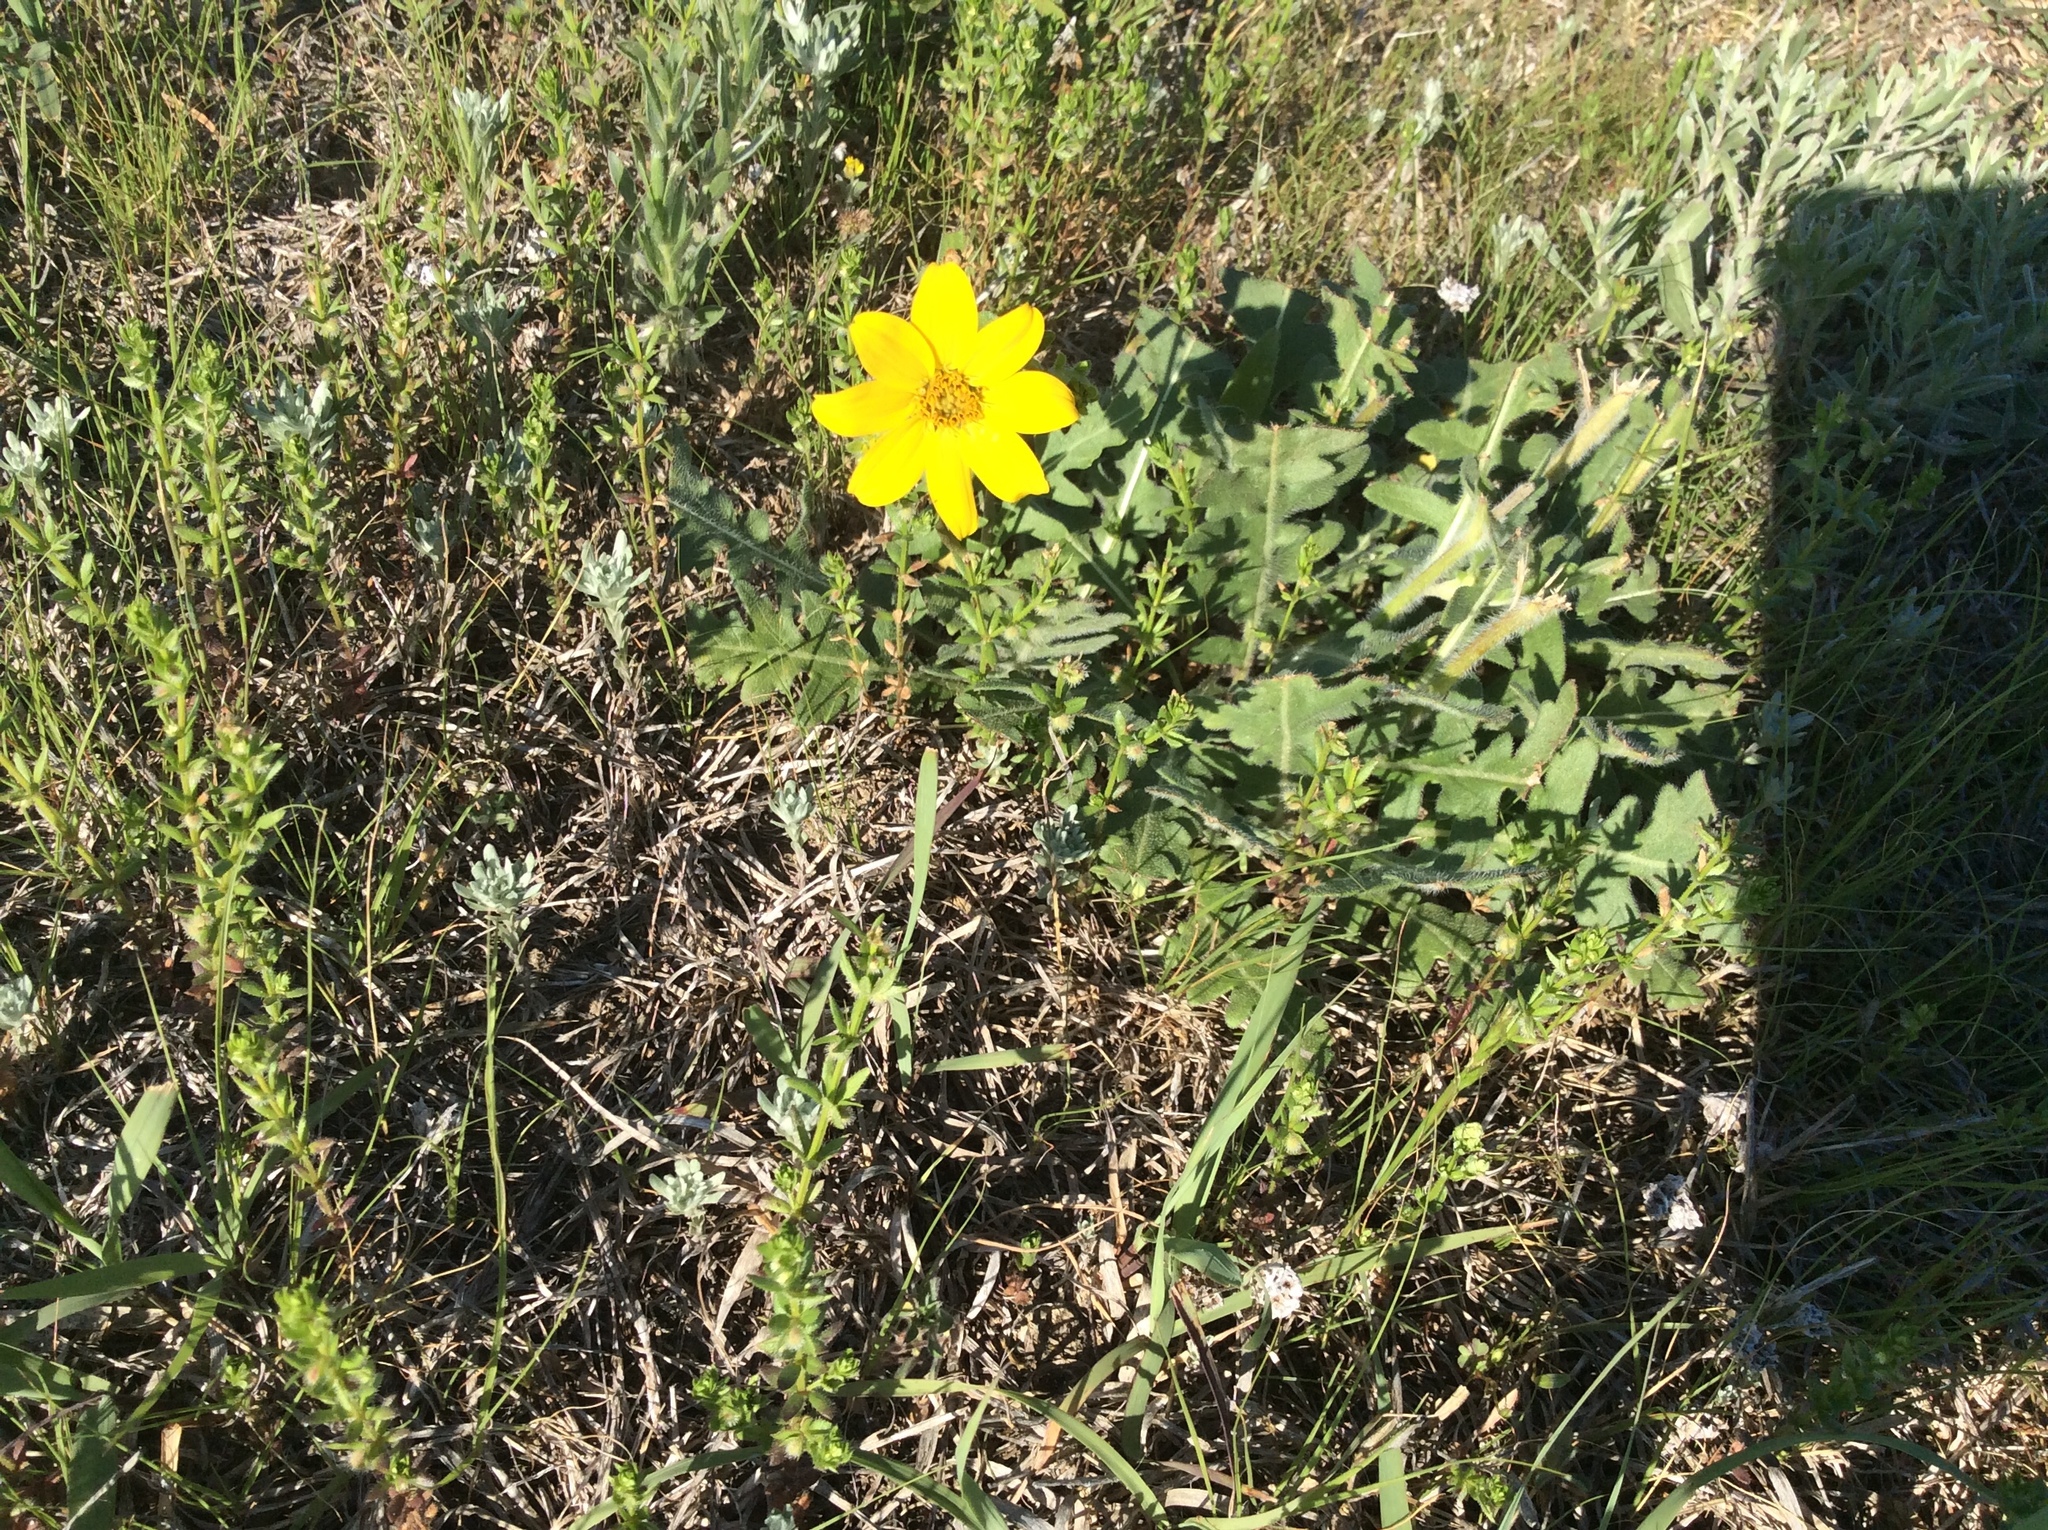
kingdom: Plantae
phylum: Tracheophyta
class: Magnoliopsida
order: Asterales
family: Asteraceae
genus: Engelmannia
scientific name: Engelmannia peristenia
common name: Engelmann's daisy
